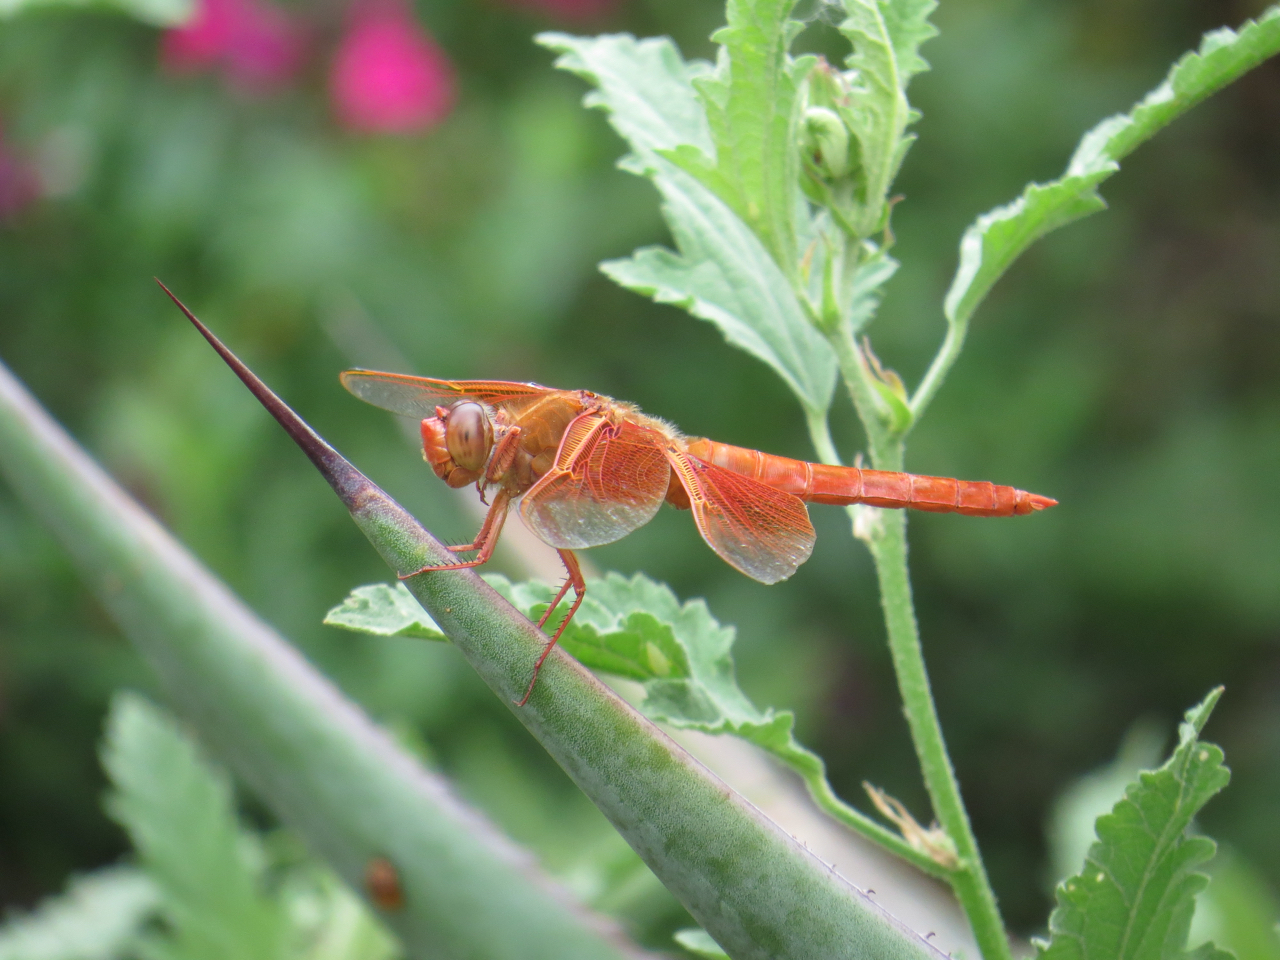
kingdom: Animalia
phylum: Arthropoda
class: Insecta
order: Odonata
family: Libellulidae
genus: Libellula
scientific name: Libellula saturata
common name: Flame skimmer
